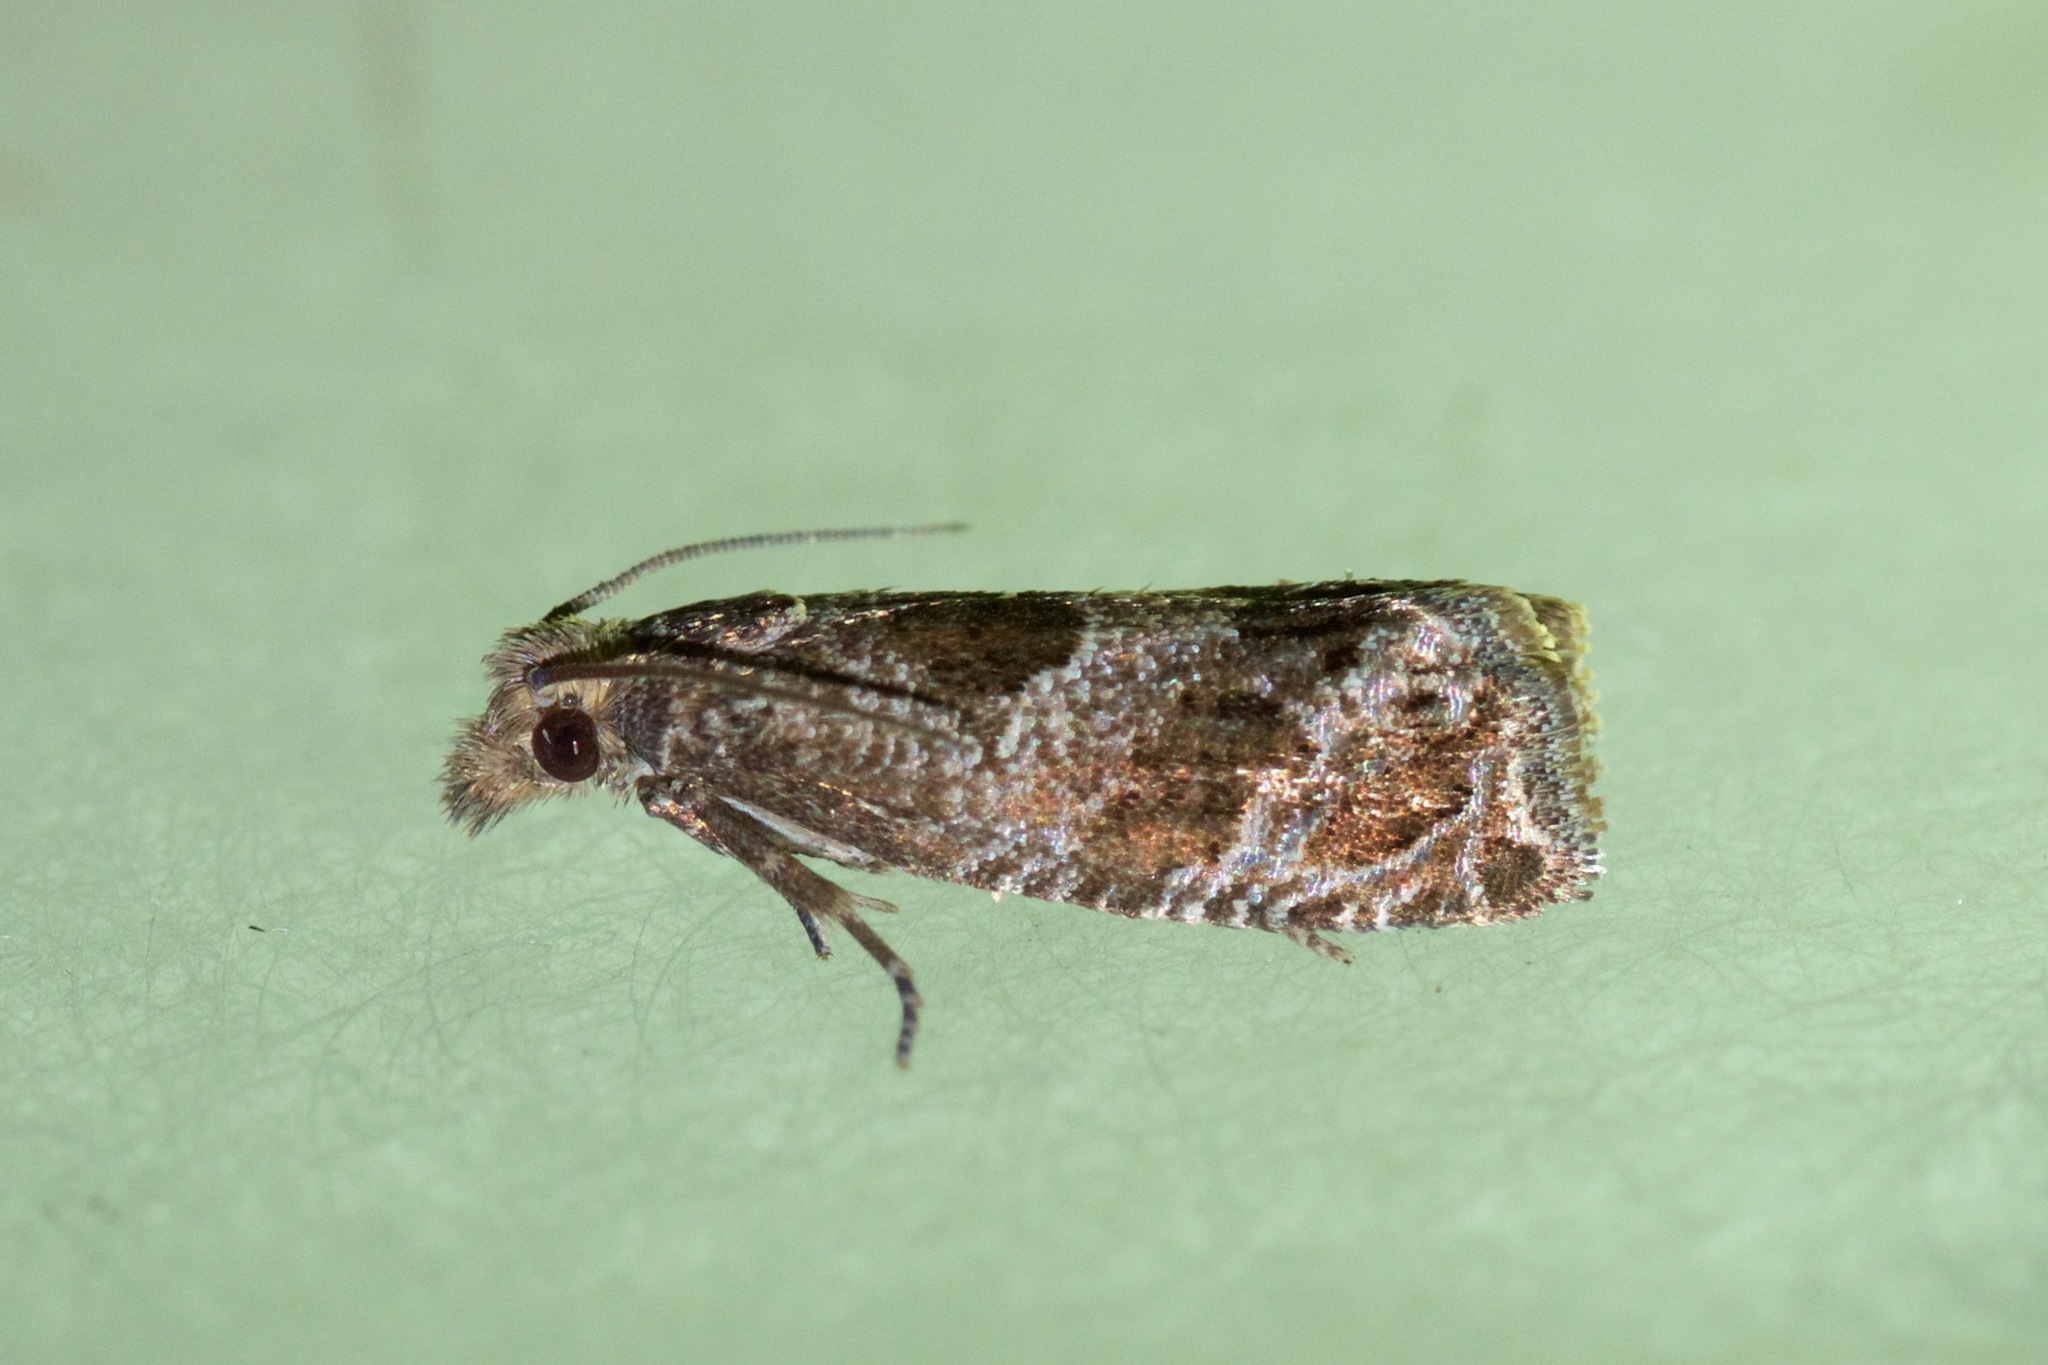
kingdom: Animalia
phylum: Arthropoda
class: Insecta
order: Lepidoptera
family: Tortricidae
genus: Pelochrista
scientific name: Pelochrista milleri
